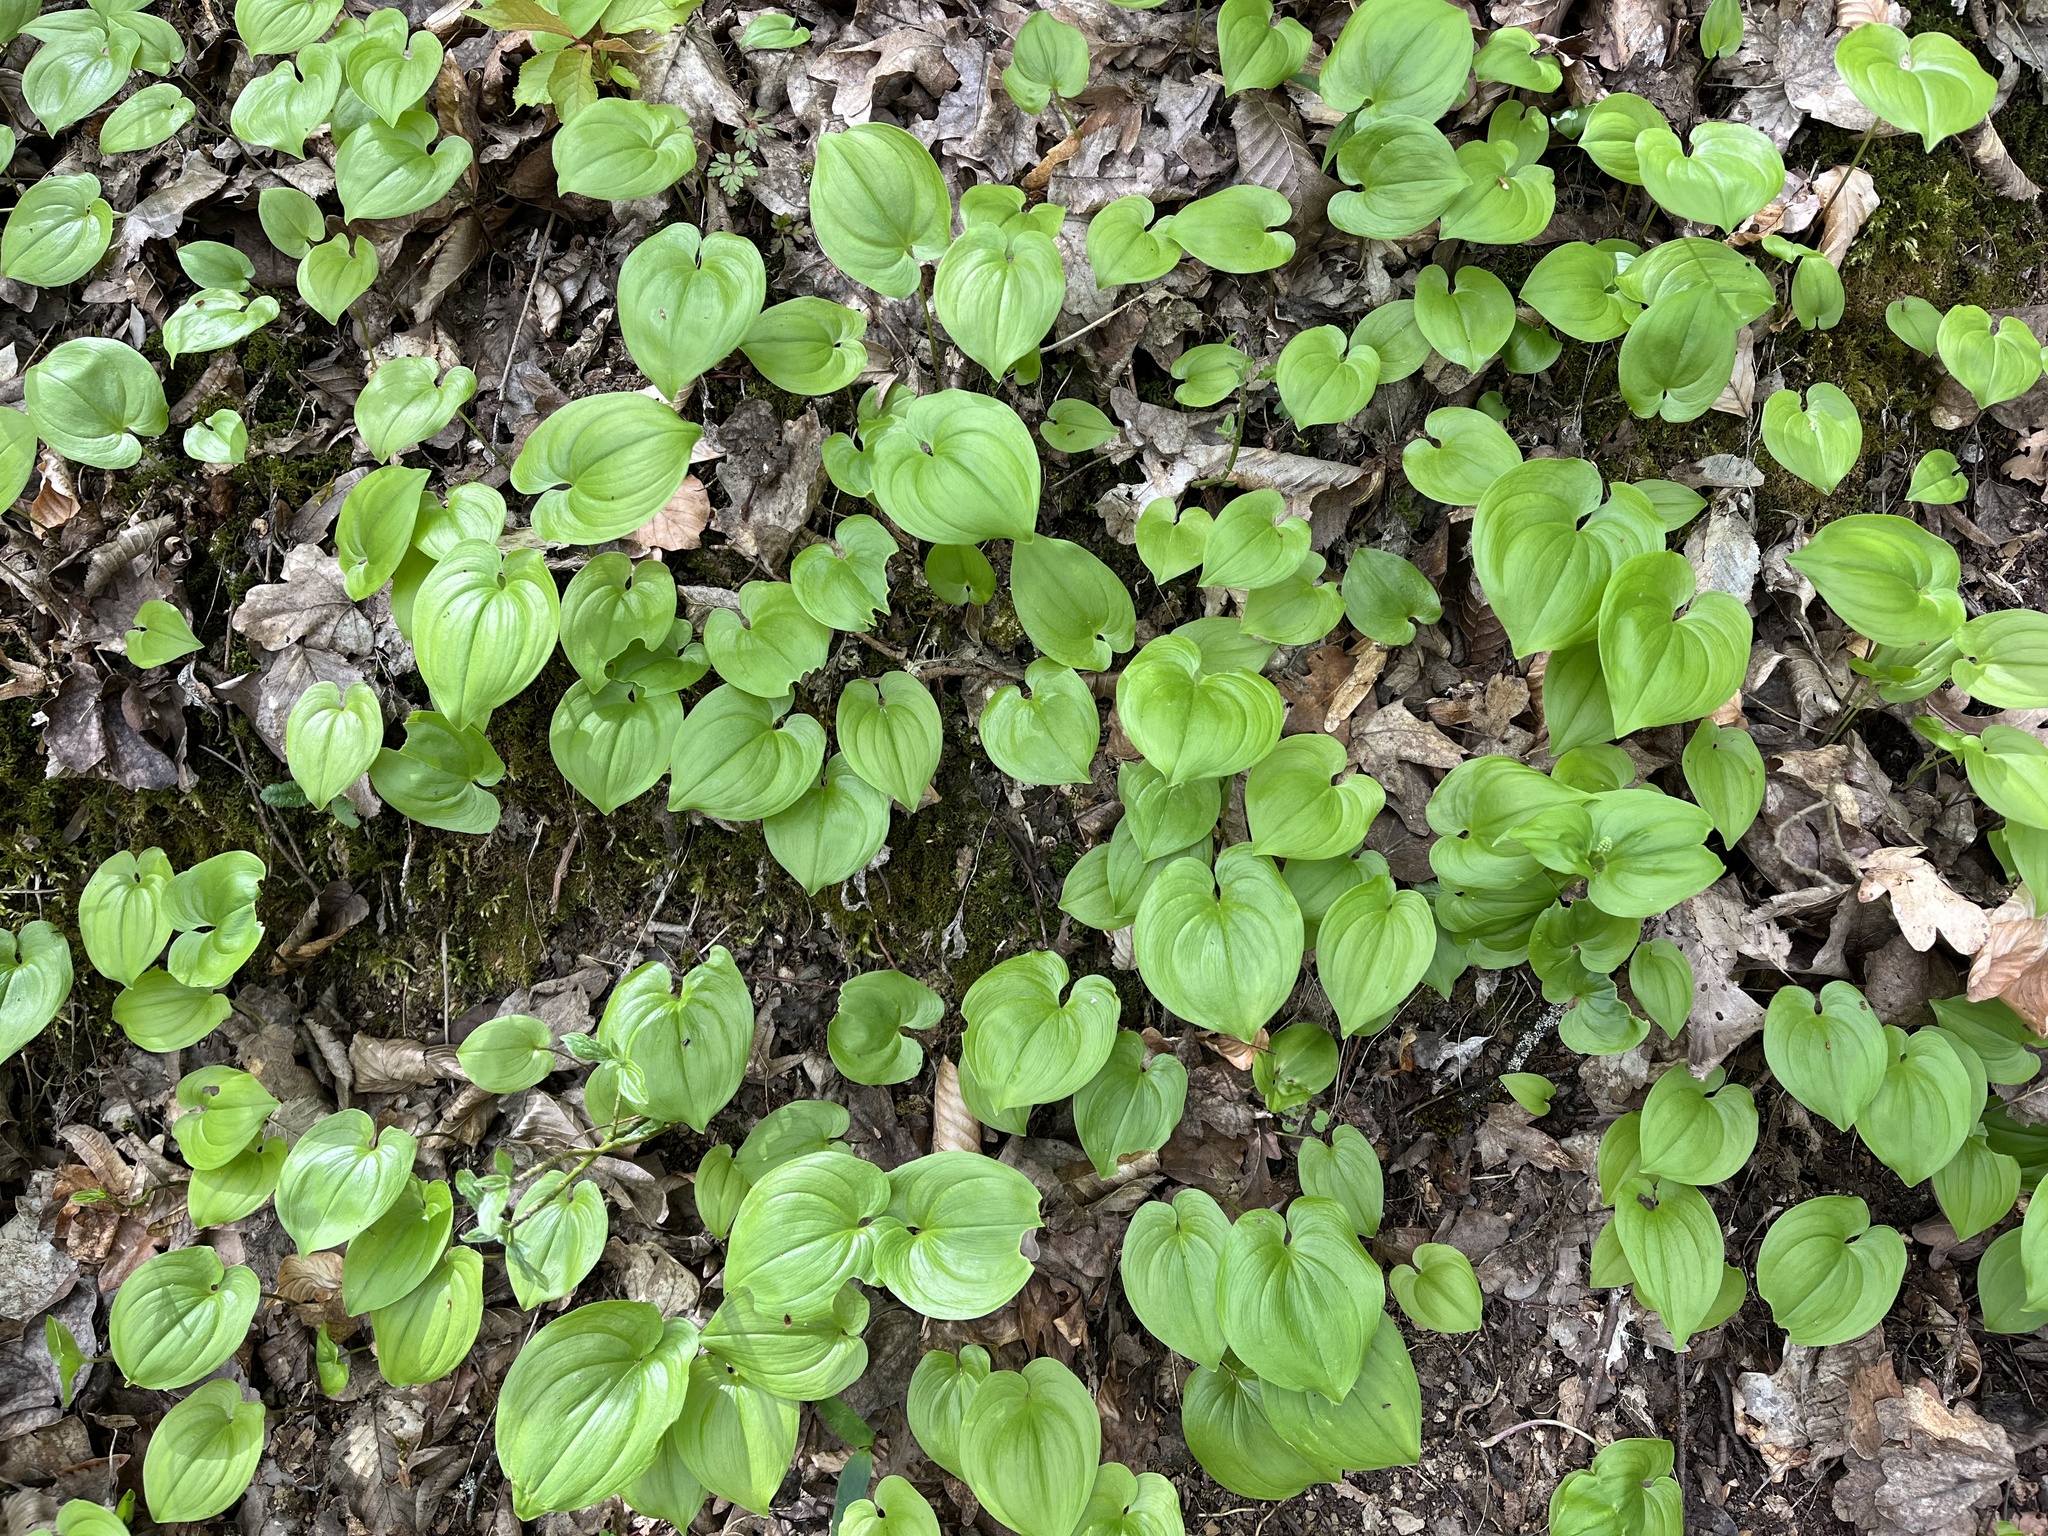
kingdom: Plantae
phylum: Tracheophyta
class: Liliopsida
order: Asparagales
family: Asparagaceae
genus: Maianthemum
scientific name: Maianthemum bifolium
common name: May lily
